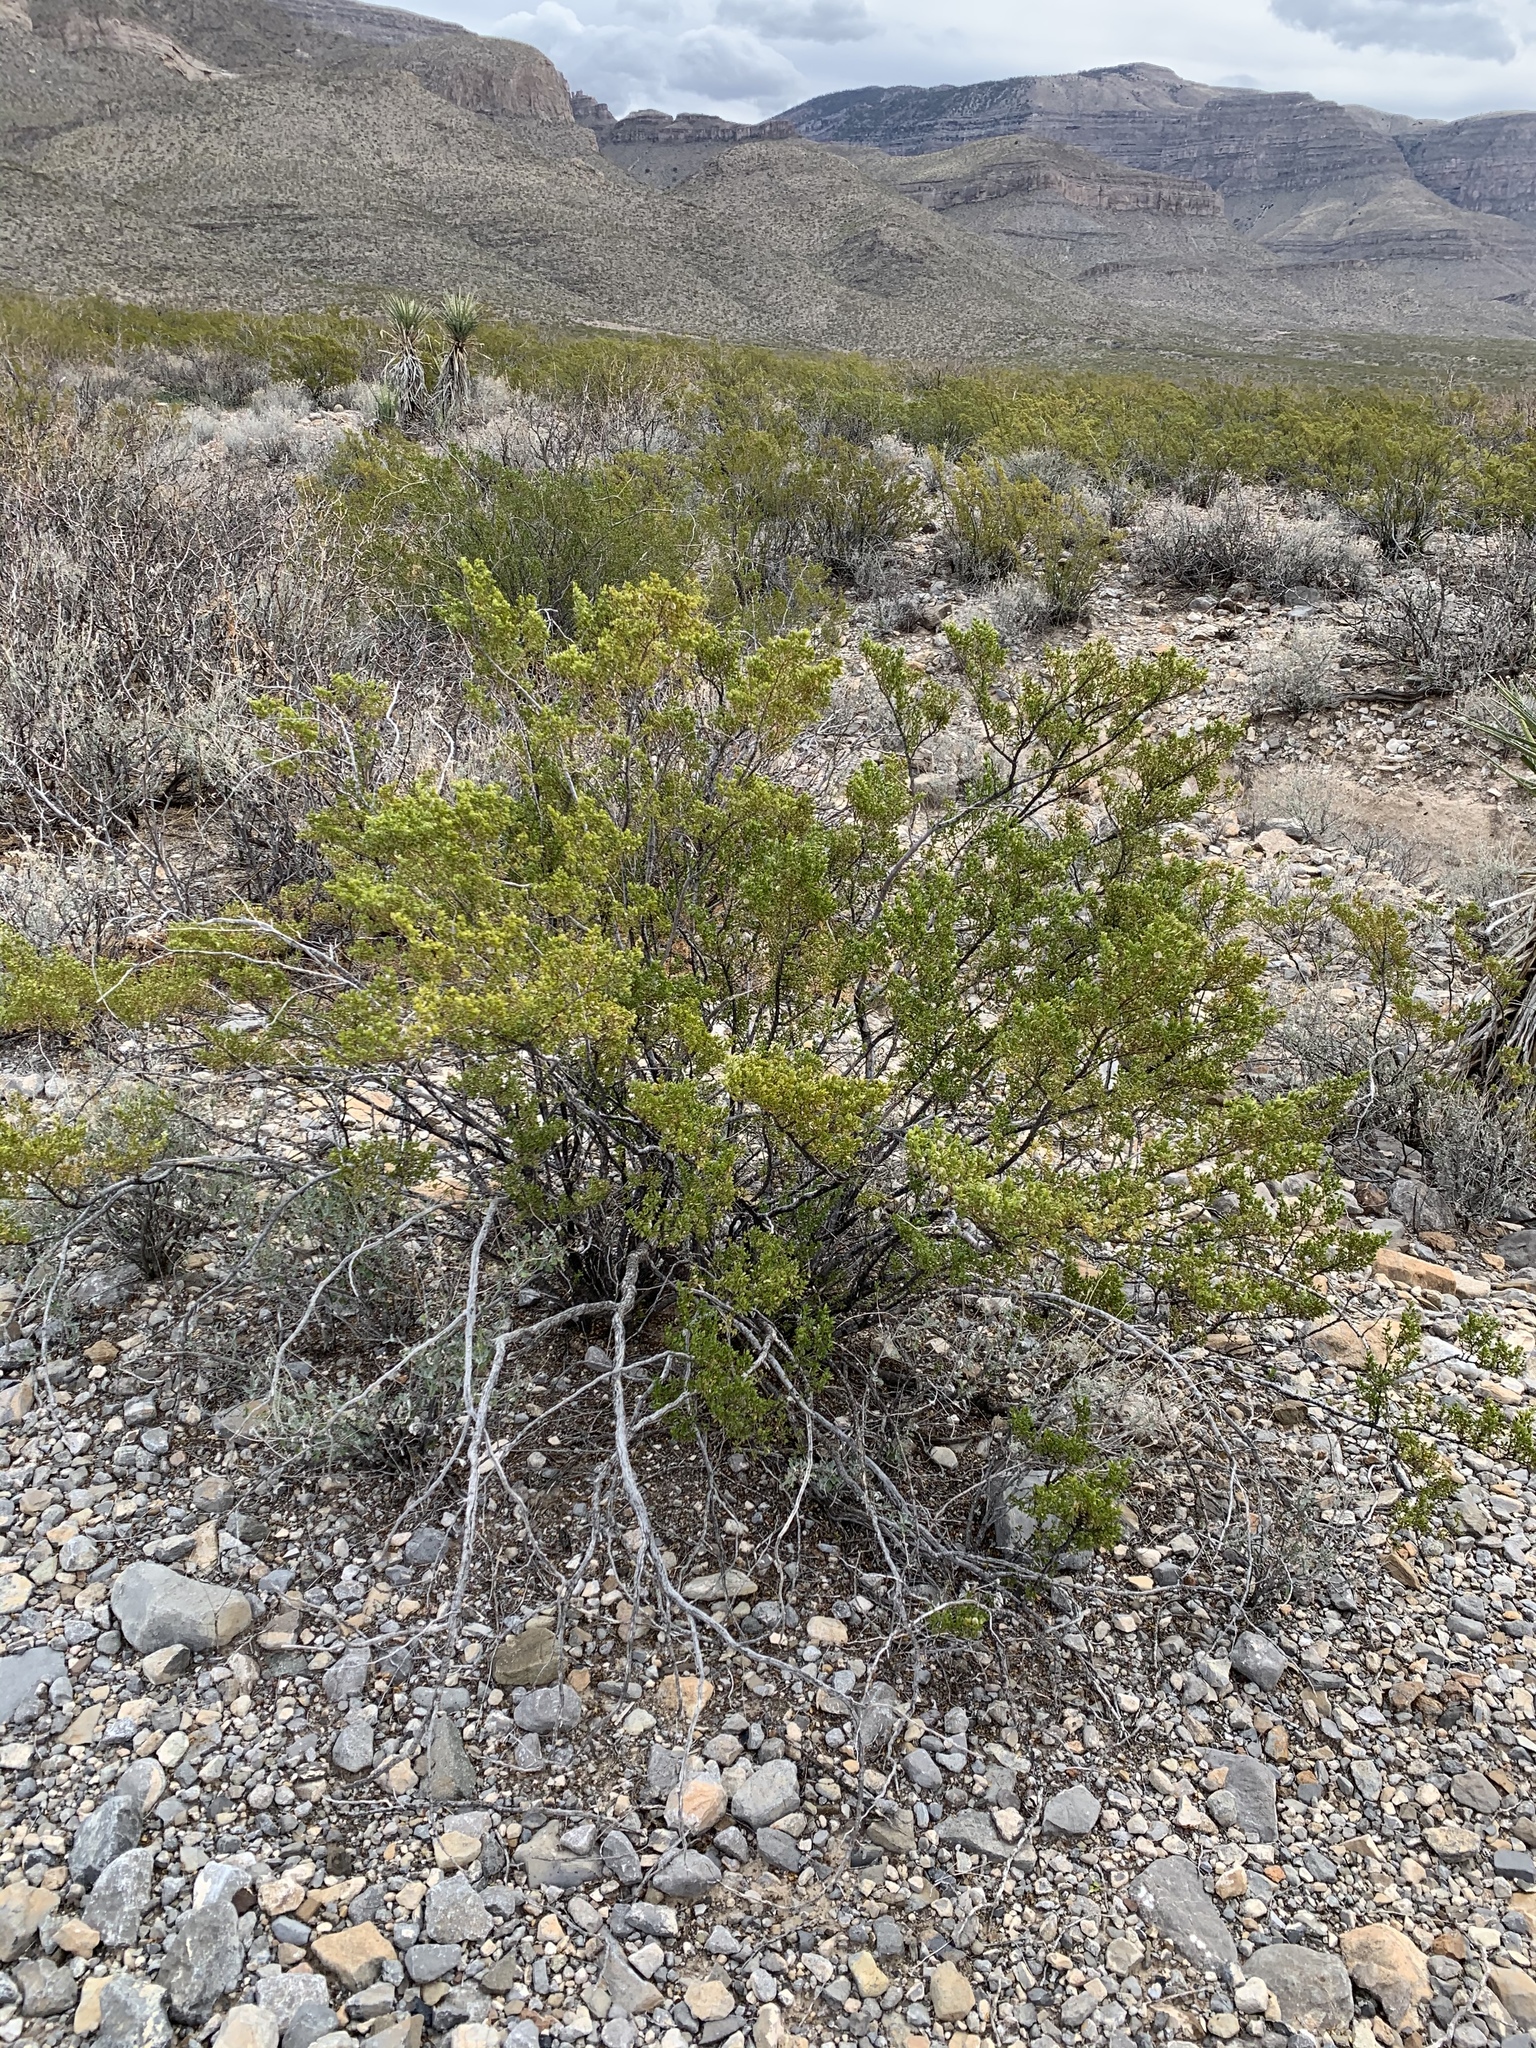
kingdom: Plantae
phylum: Tracheophyta
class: Magnoliopsida
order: Zygophyllales
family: Zygophyllaceae
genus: Larrea
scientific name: Larrea tridentata
